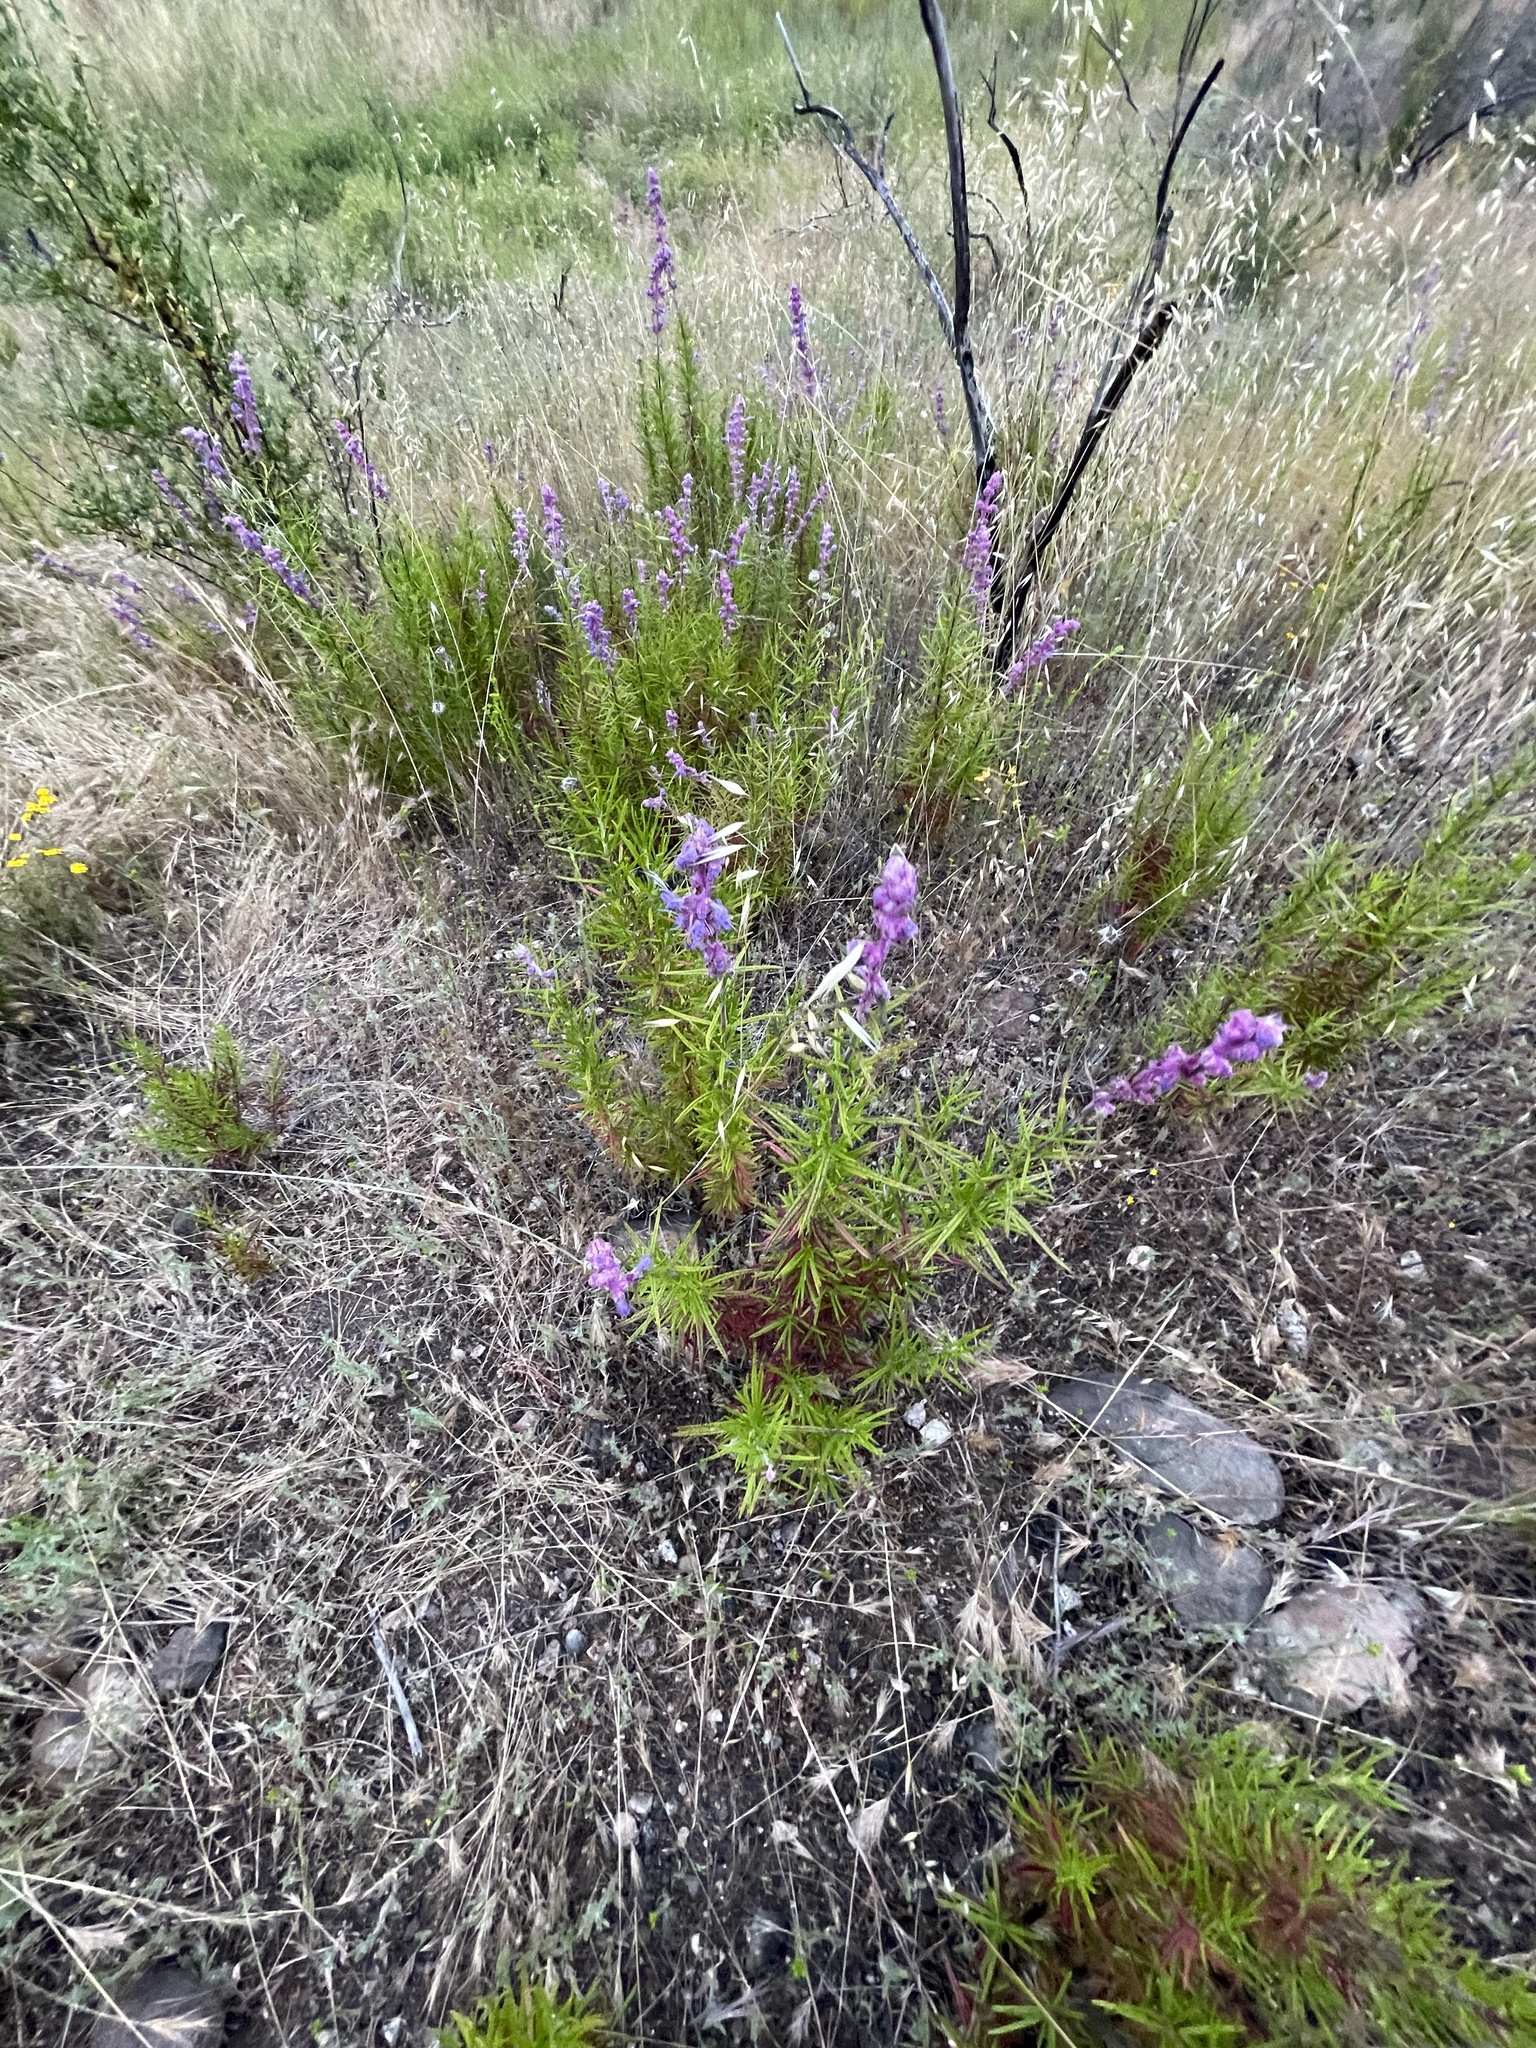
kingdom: Plantae
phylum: Tracheophyta
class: Magnoliopsida
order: Lamiales
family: Lamiaceae
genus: Trichostema
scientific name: Trichostema lanatum
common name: Woolly bluecurls
